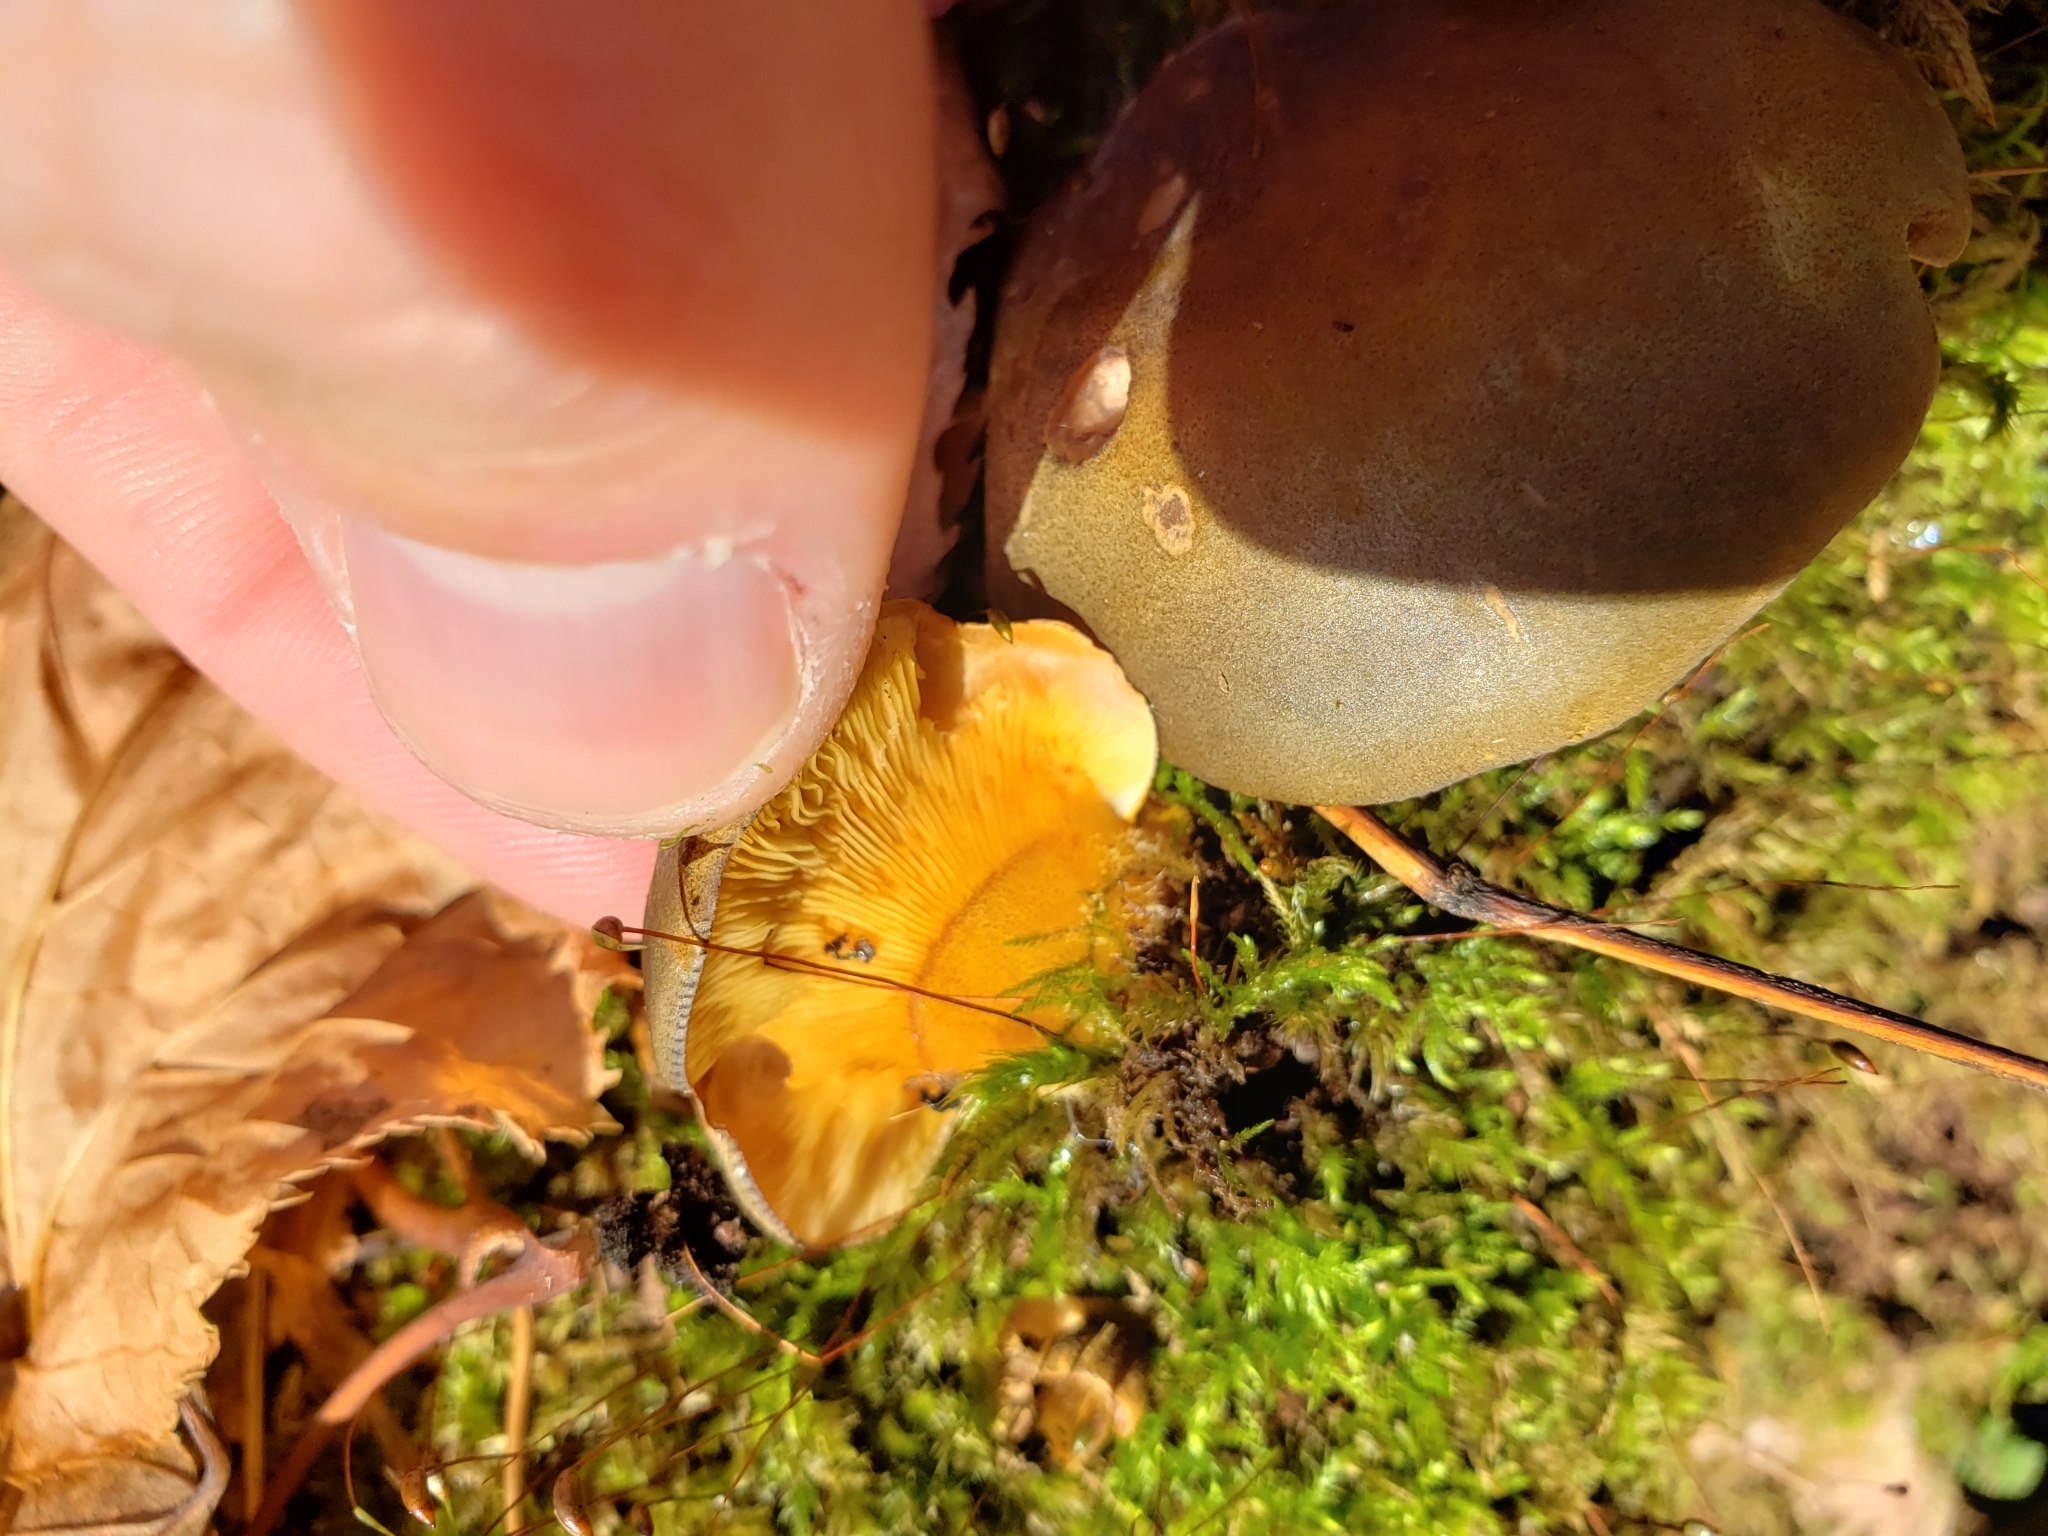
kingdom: Fungi
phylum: Basidiomycota
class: Agaricomycetes
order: Agaricales
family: Sarcomyxaceae
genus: Sarcomyxa
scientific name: Sarcomyxa serotina
